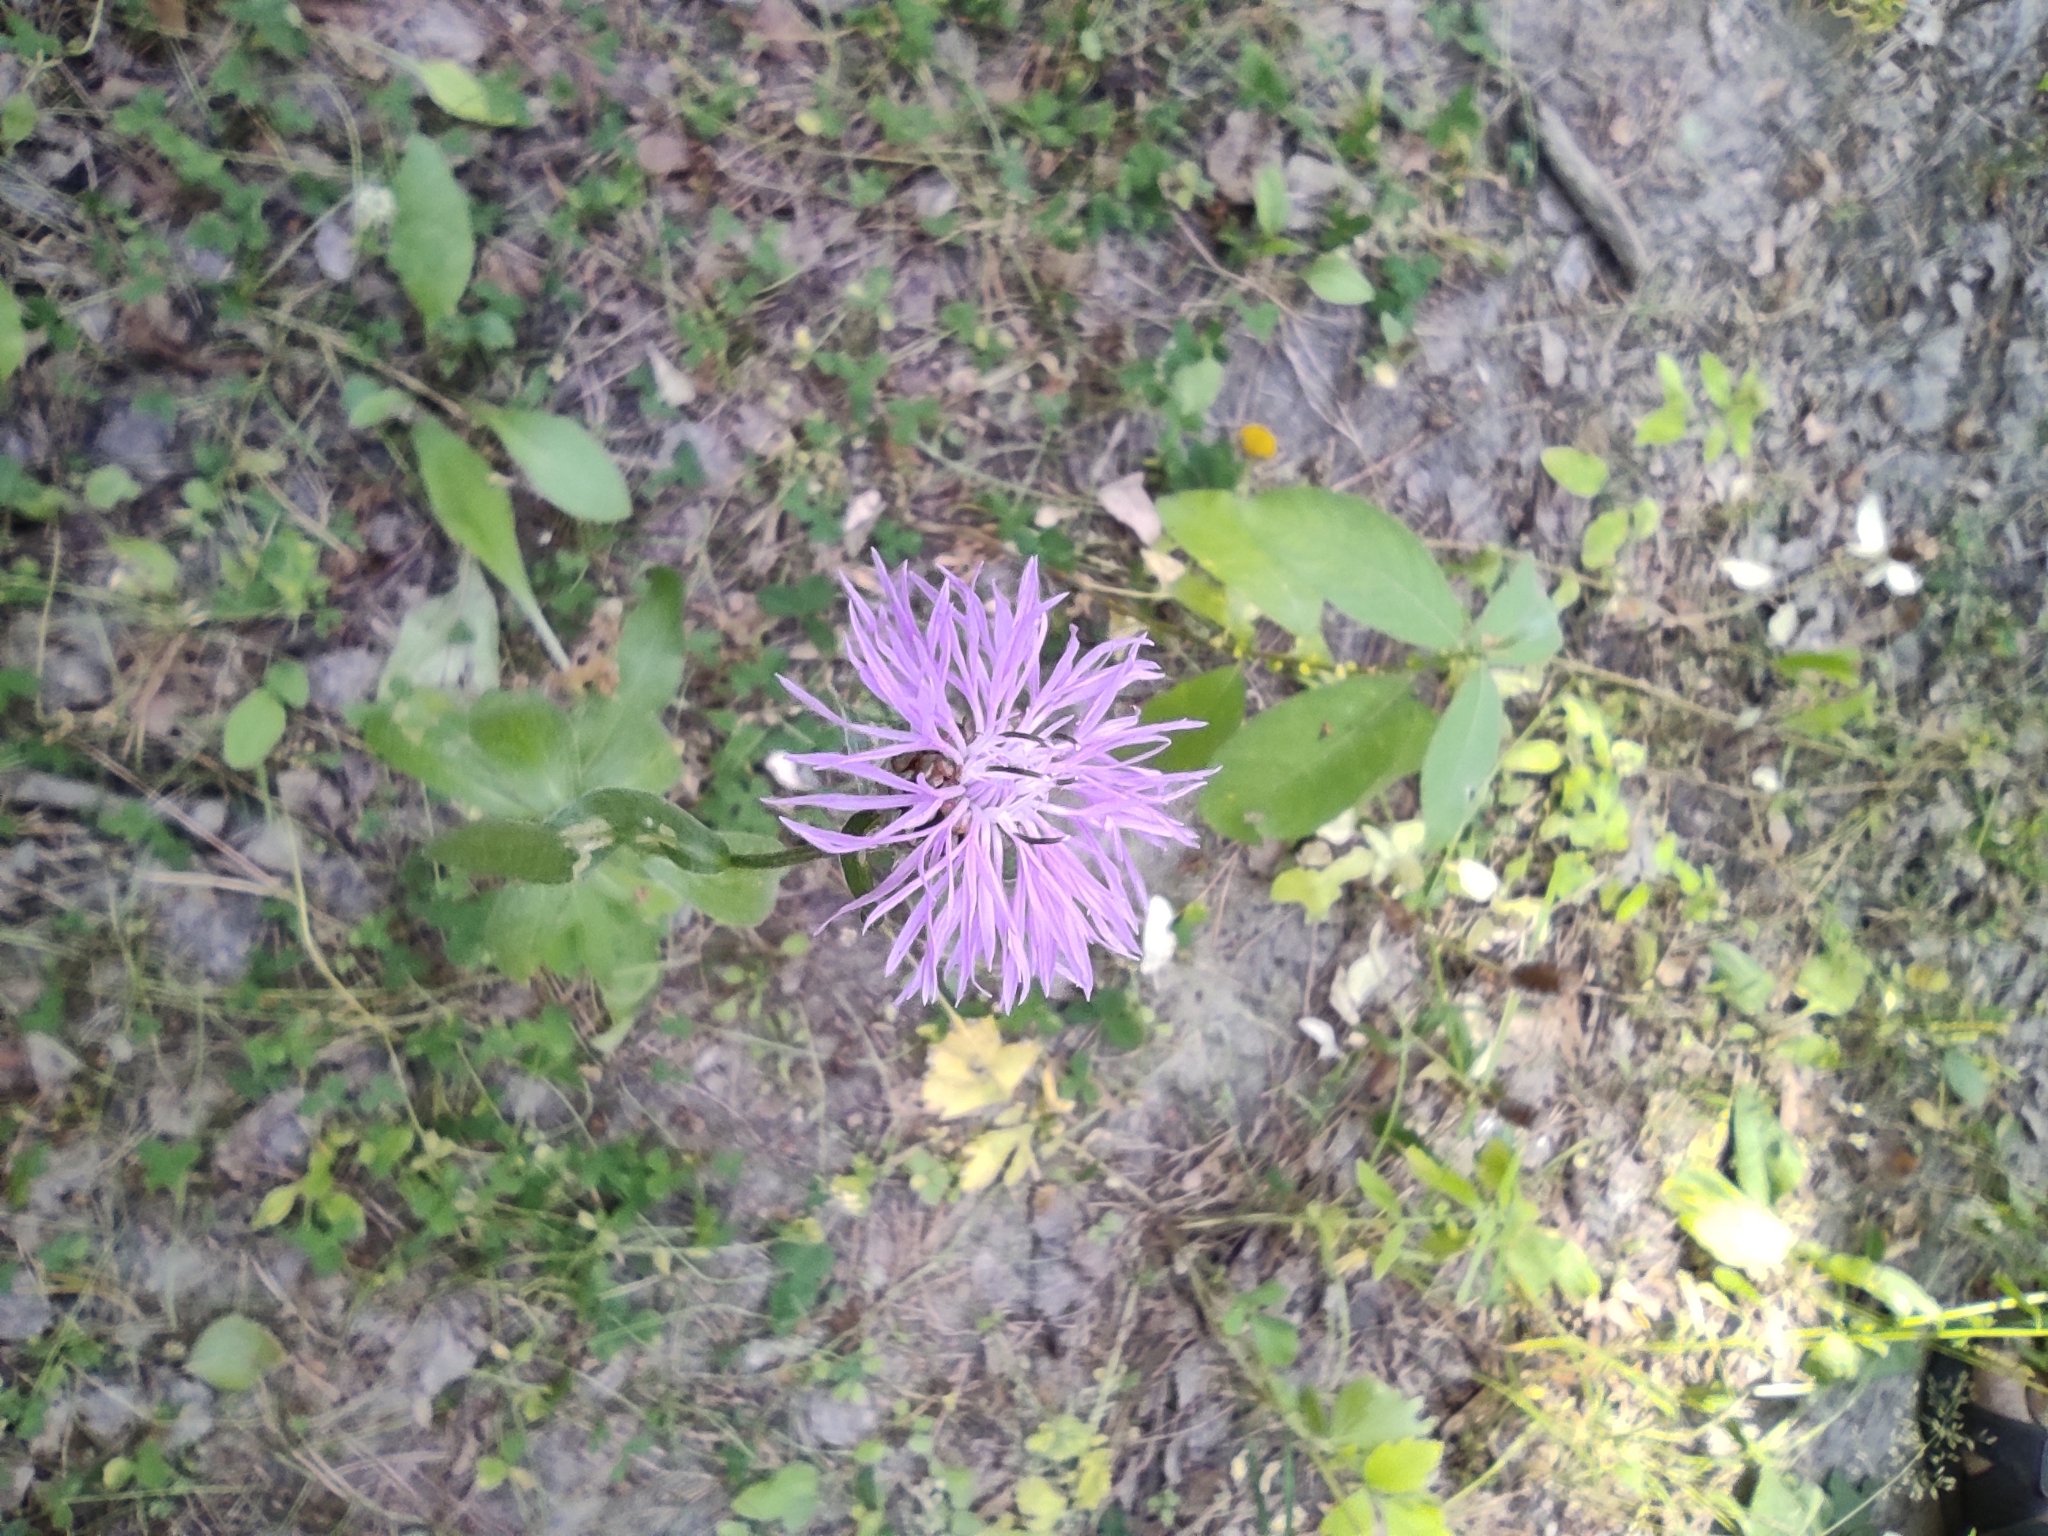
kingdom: Plantae
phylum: Tracheophyta
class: Magnoliopsida
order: Asterales
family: Asteraceae
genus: Centaurea
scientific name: Centaurea jacea
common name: Brown knapweed
